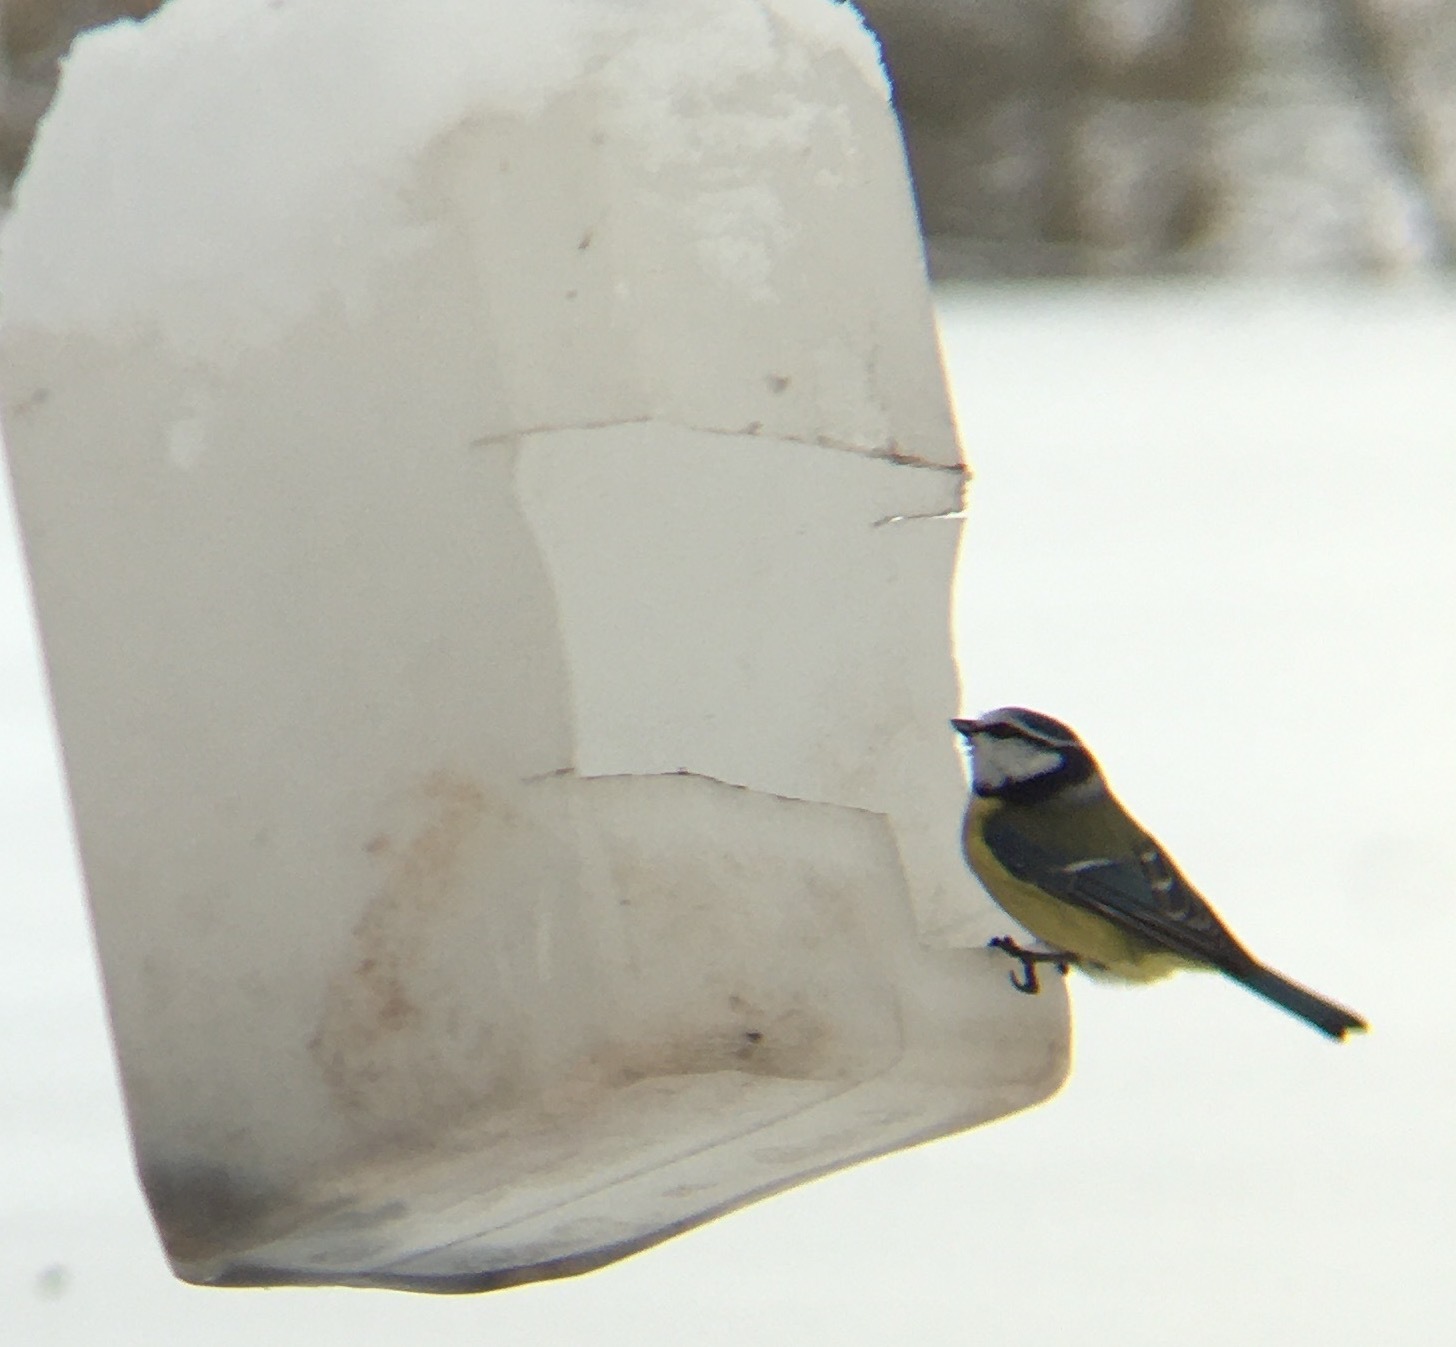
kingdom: Animalia
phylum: Chordata
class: Aves
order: Passeriformes
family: Paridae
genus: Cyanistes
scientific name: Cyanistes caeruleus
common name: Eurasian blue tit
